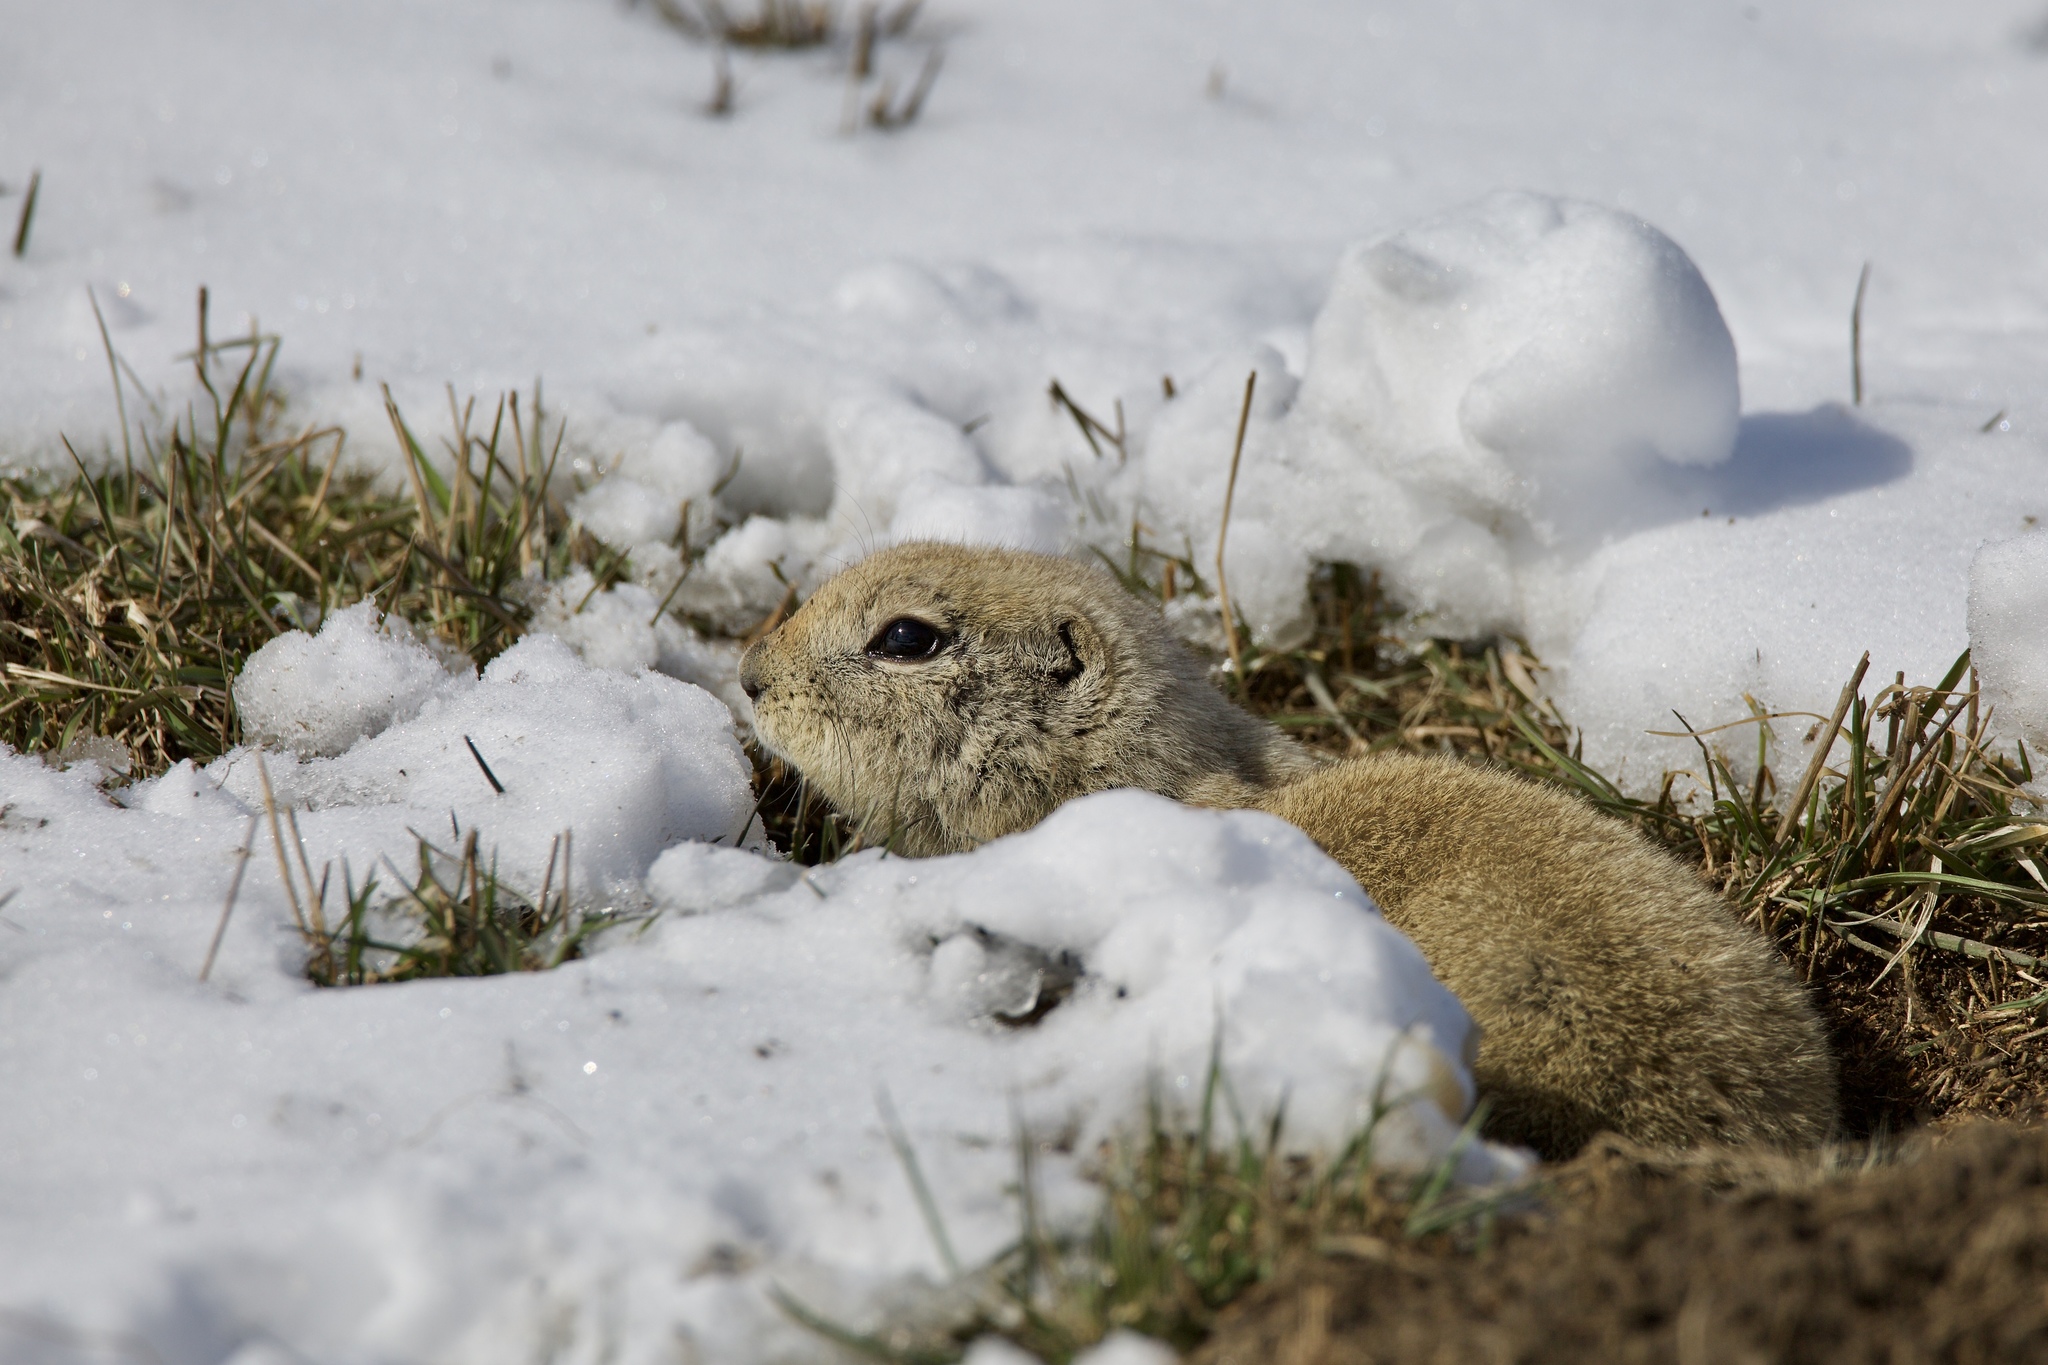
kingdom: Animalia
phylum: Chordata
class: Mammalia
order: Rodentia
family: Sciuridae
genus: Urocitellus
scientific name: Urocitellus richardsonii
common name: Richardson's ground squirrel
